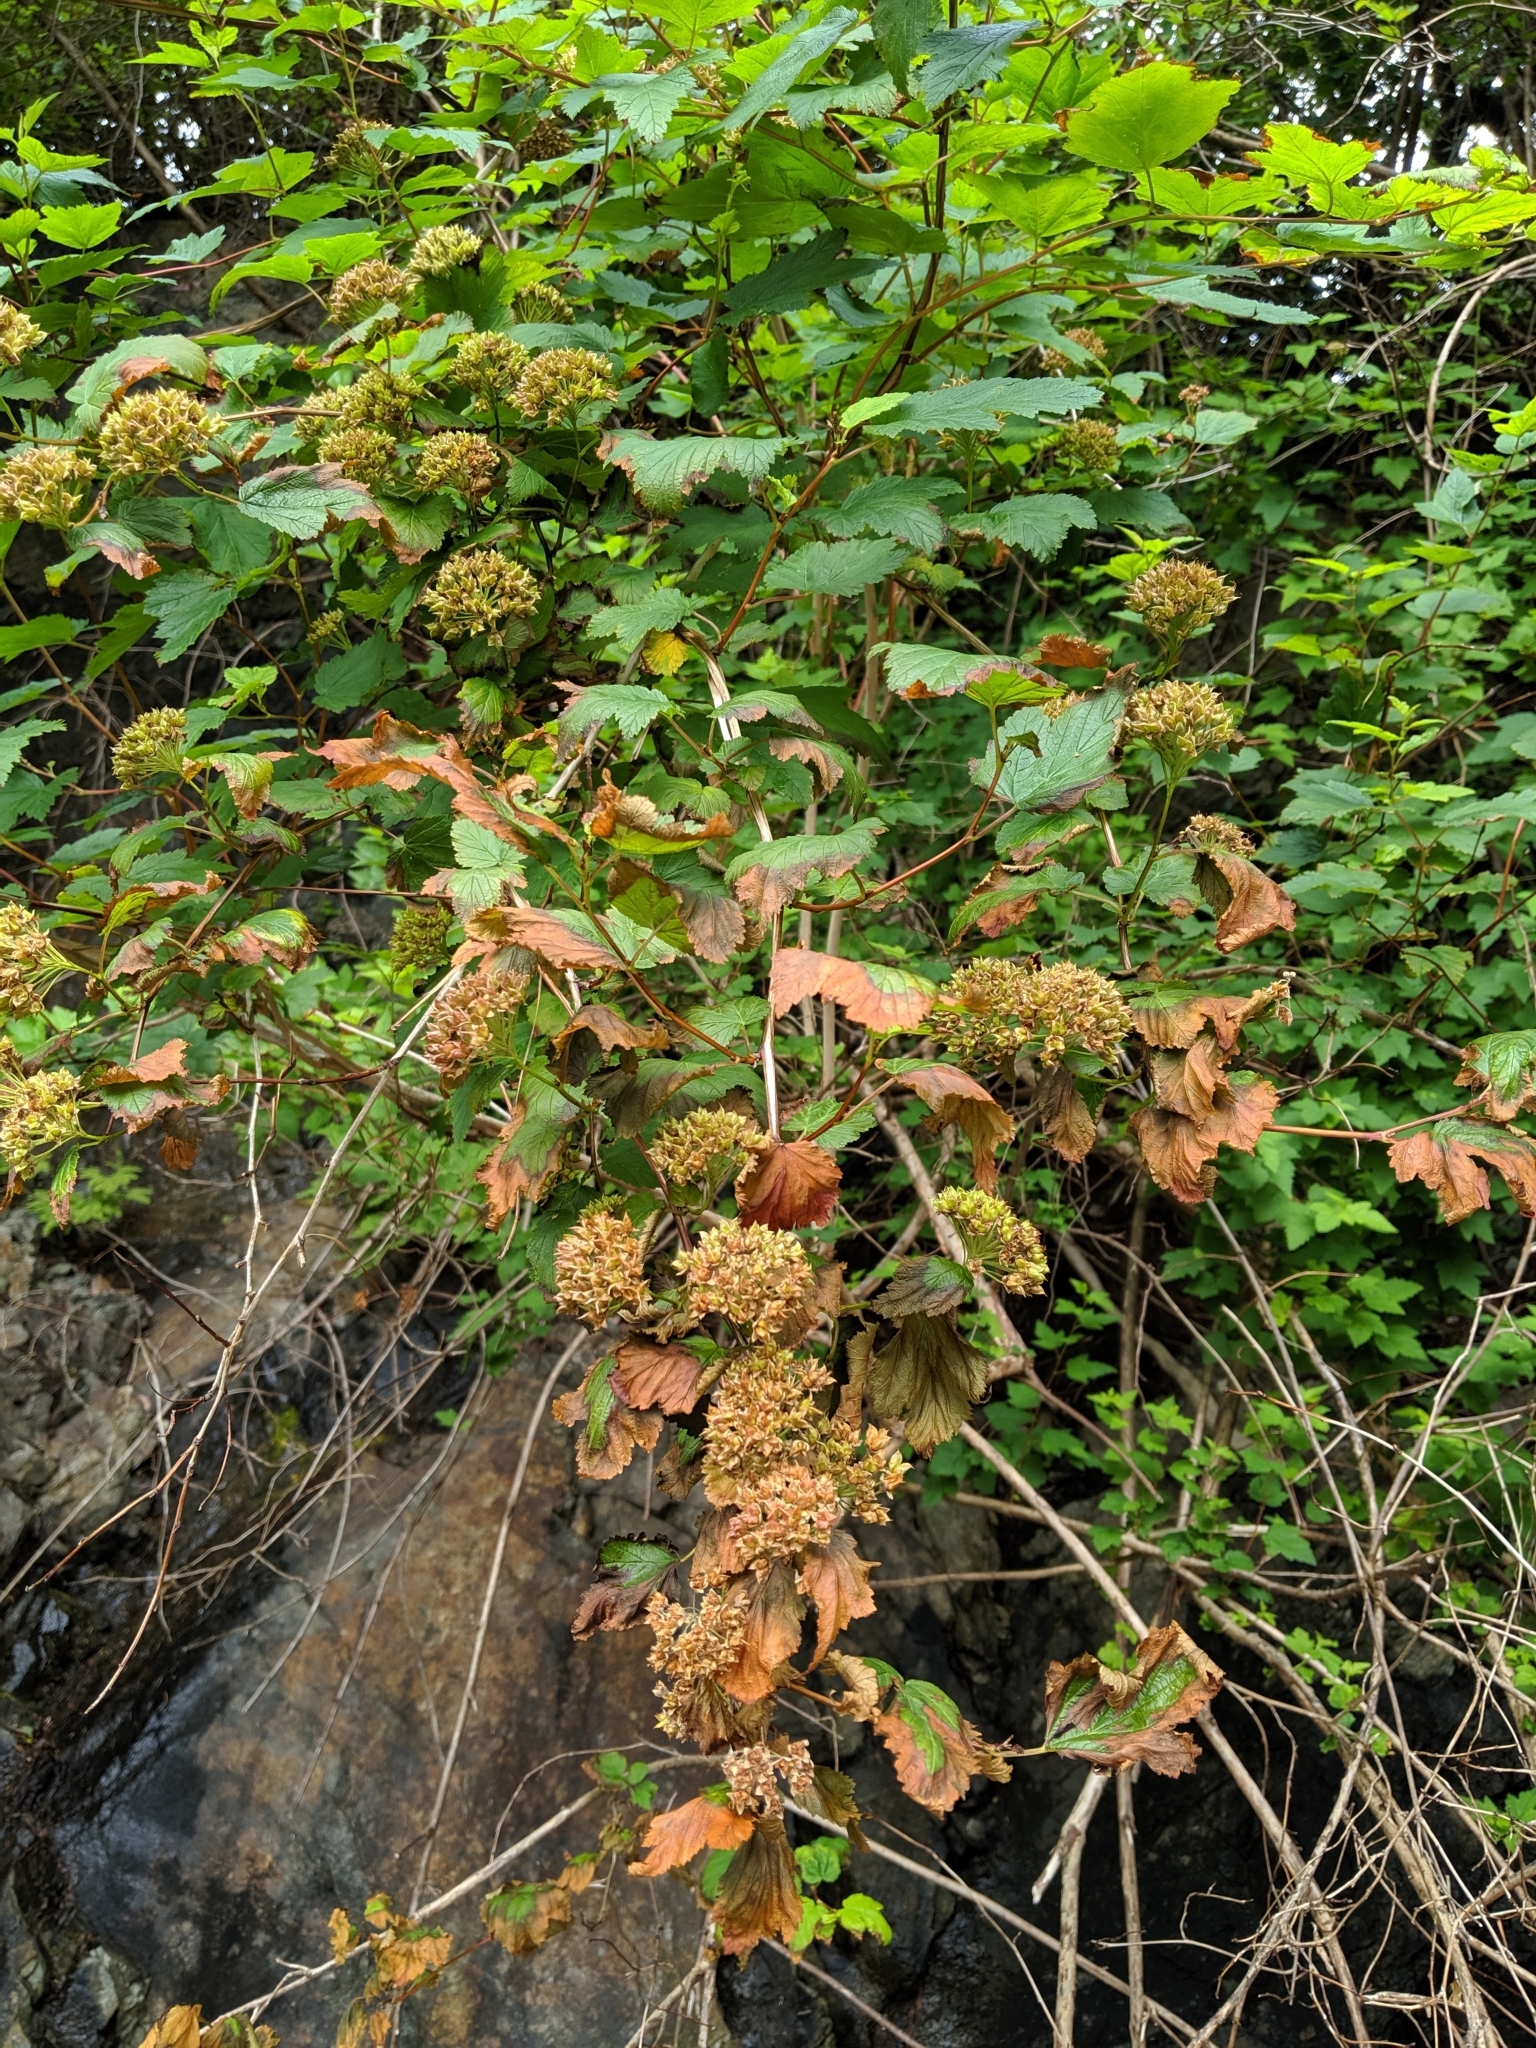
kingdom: Plantae
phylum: Tracheophyta
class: Magnoliopsida
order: Rosales
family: Rosaceae
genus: Physocarpus
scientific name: Physocarpus capitatus
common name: Pacific ninebark
